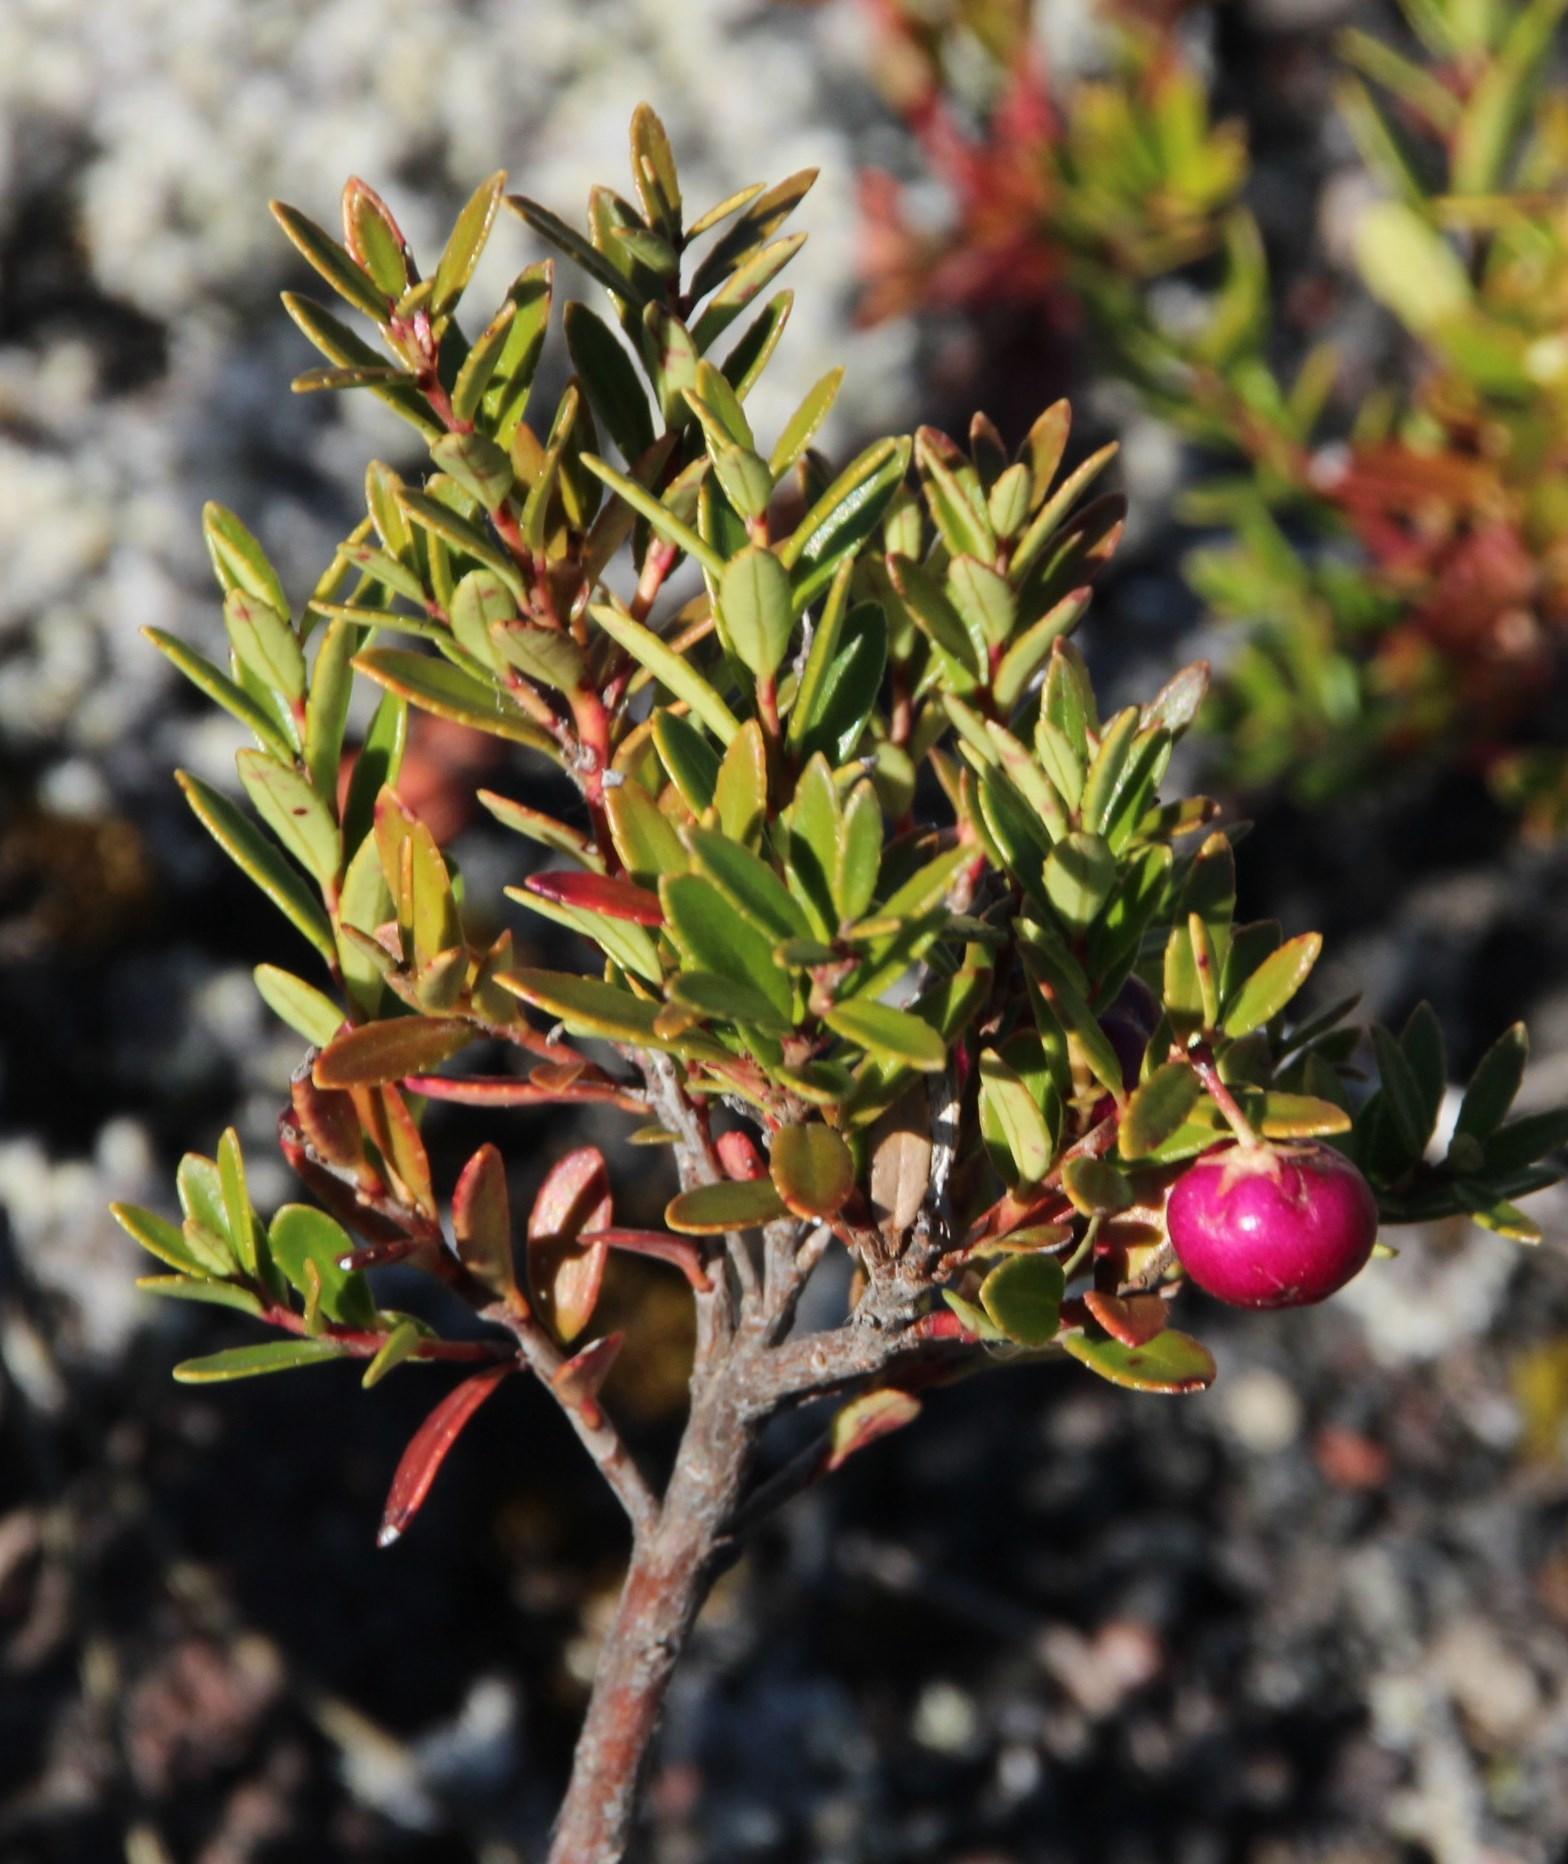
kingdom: Plantae
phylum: Tracheophyta
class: Magnoliopsida
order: Ericales
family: Ericaceae
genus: Gaultheria
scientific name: Gaultheria poeppigii
